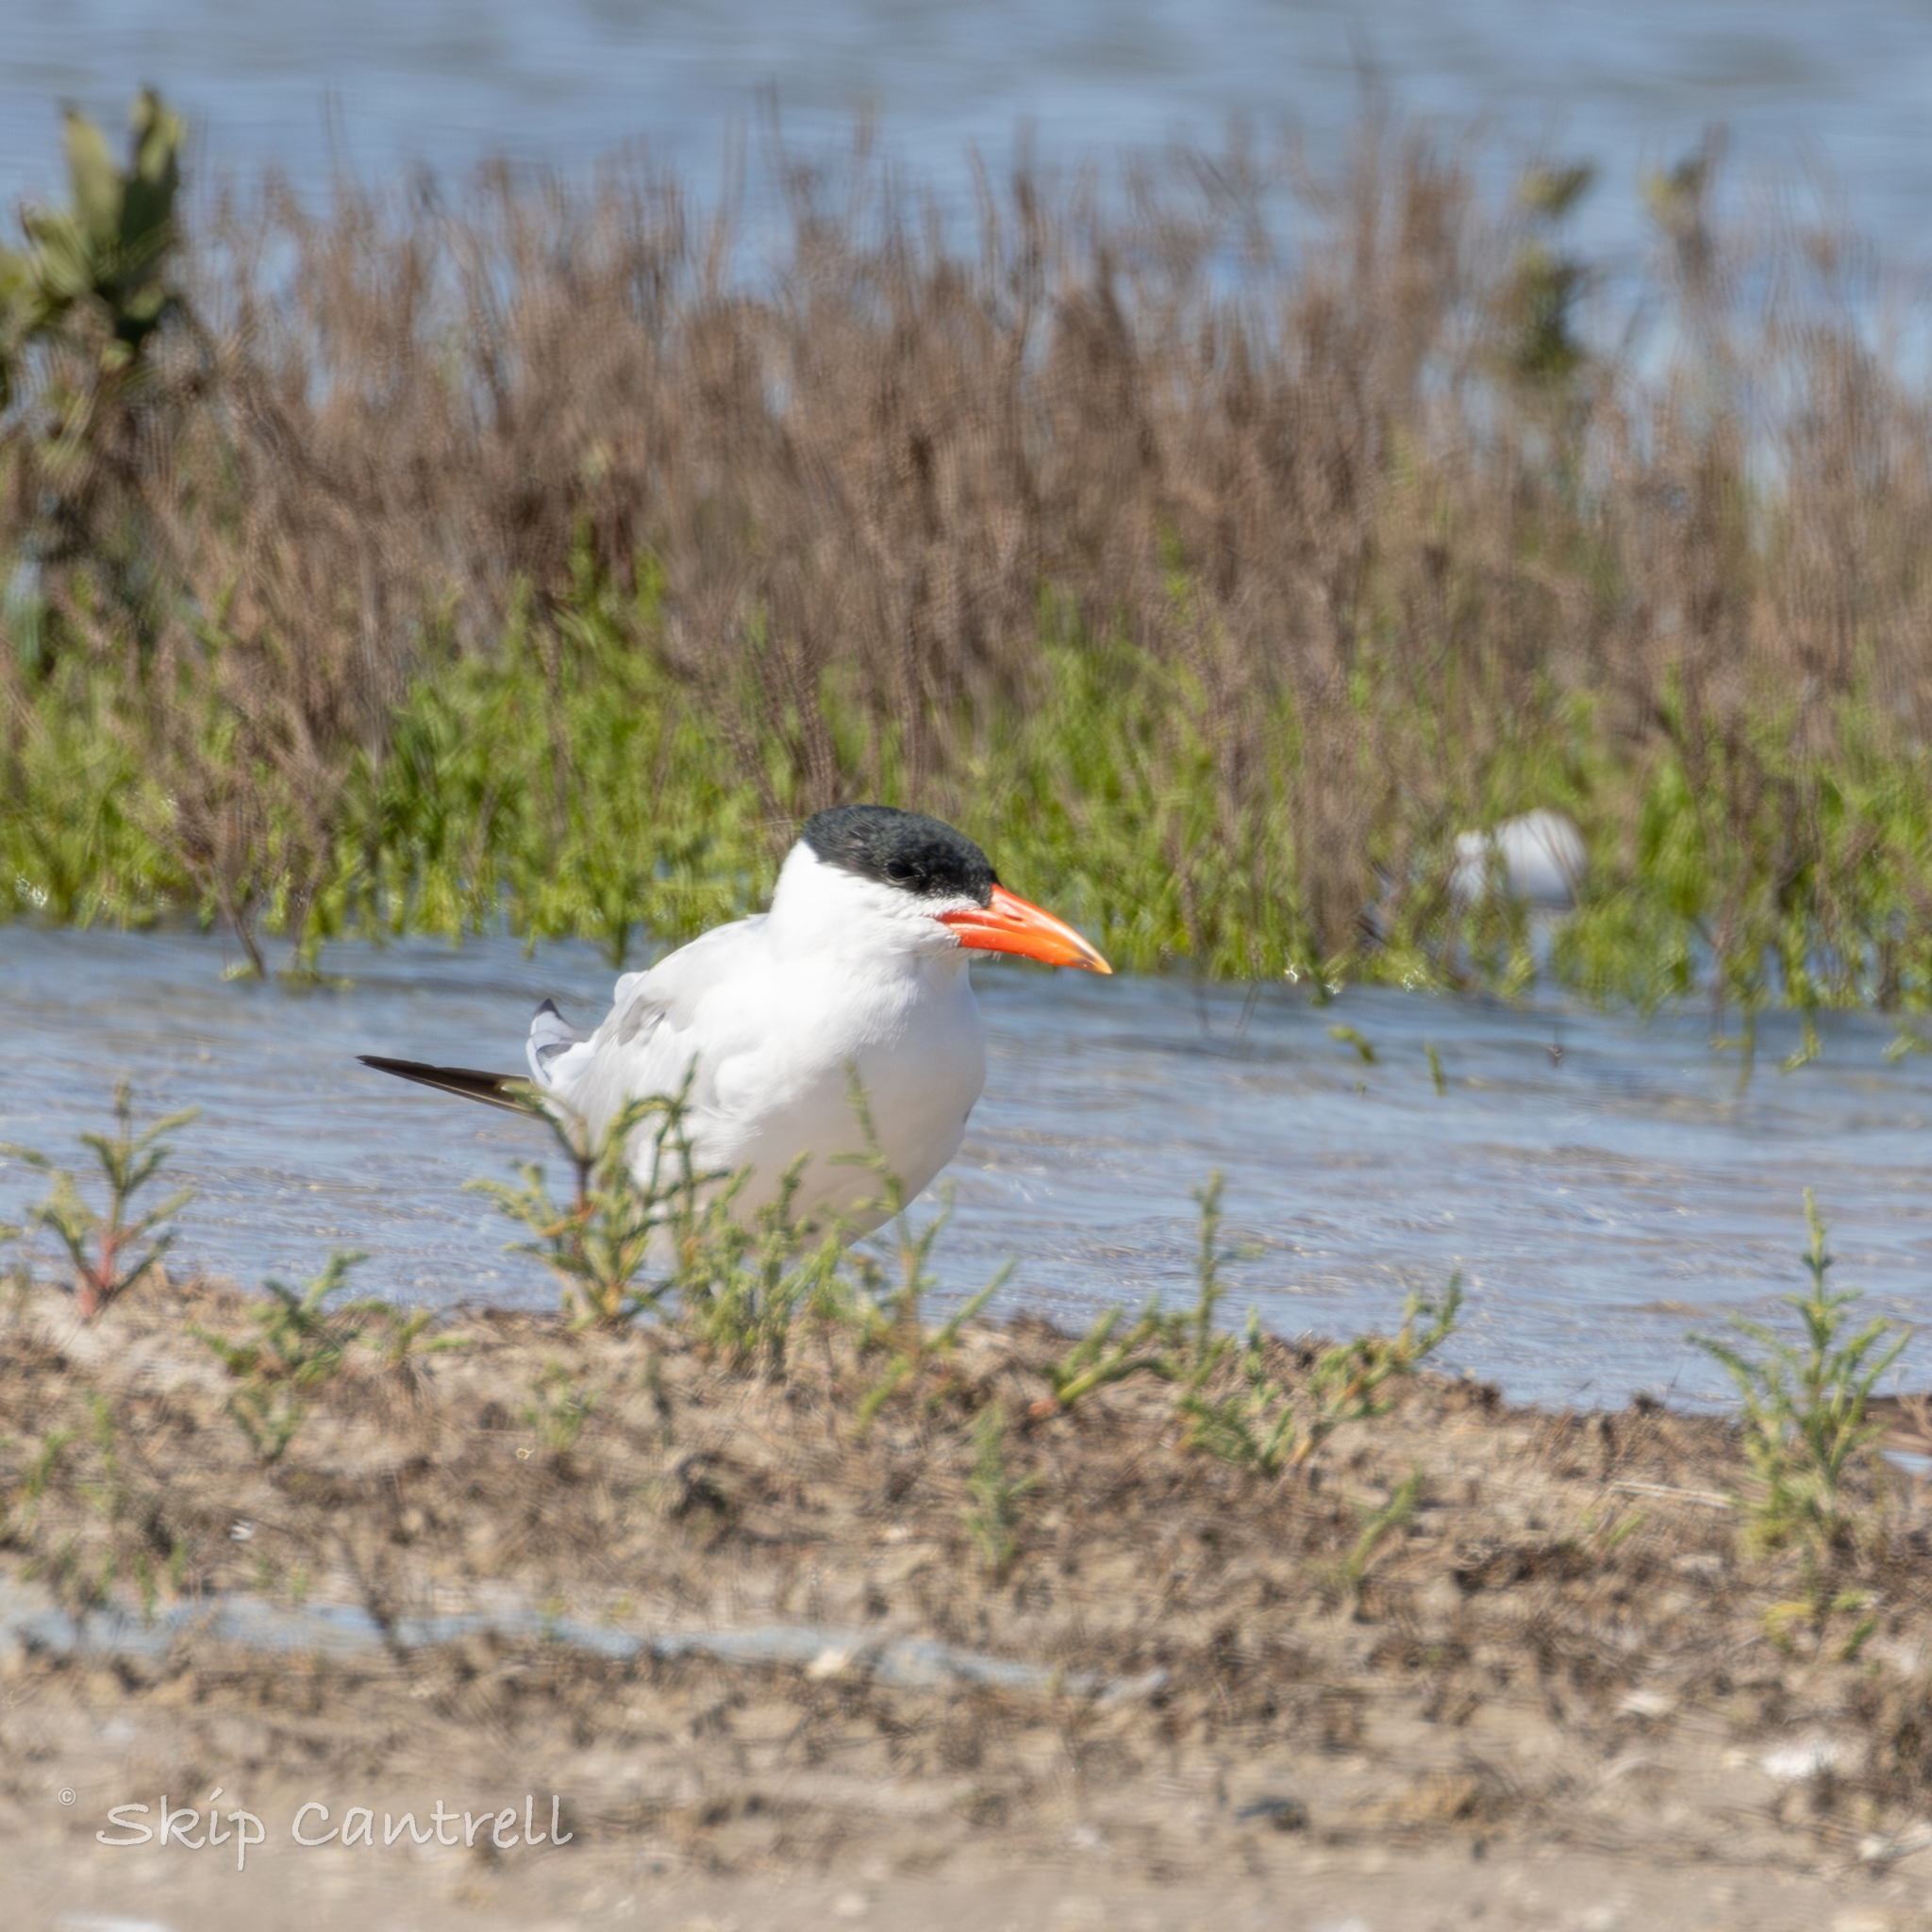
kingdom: Animalia
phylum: Chordata
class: Aves
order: Charadriiformes
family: Laridae
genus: Hydroprogne
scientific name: Hydroprogne caspia
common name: Caspian tern
